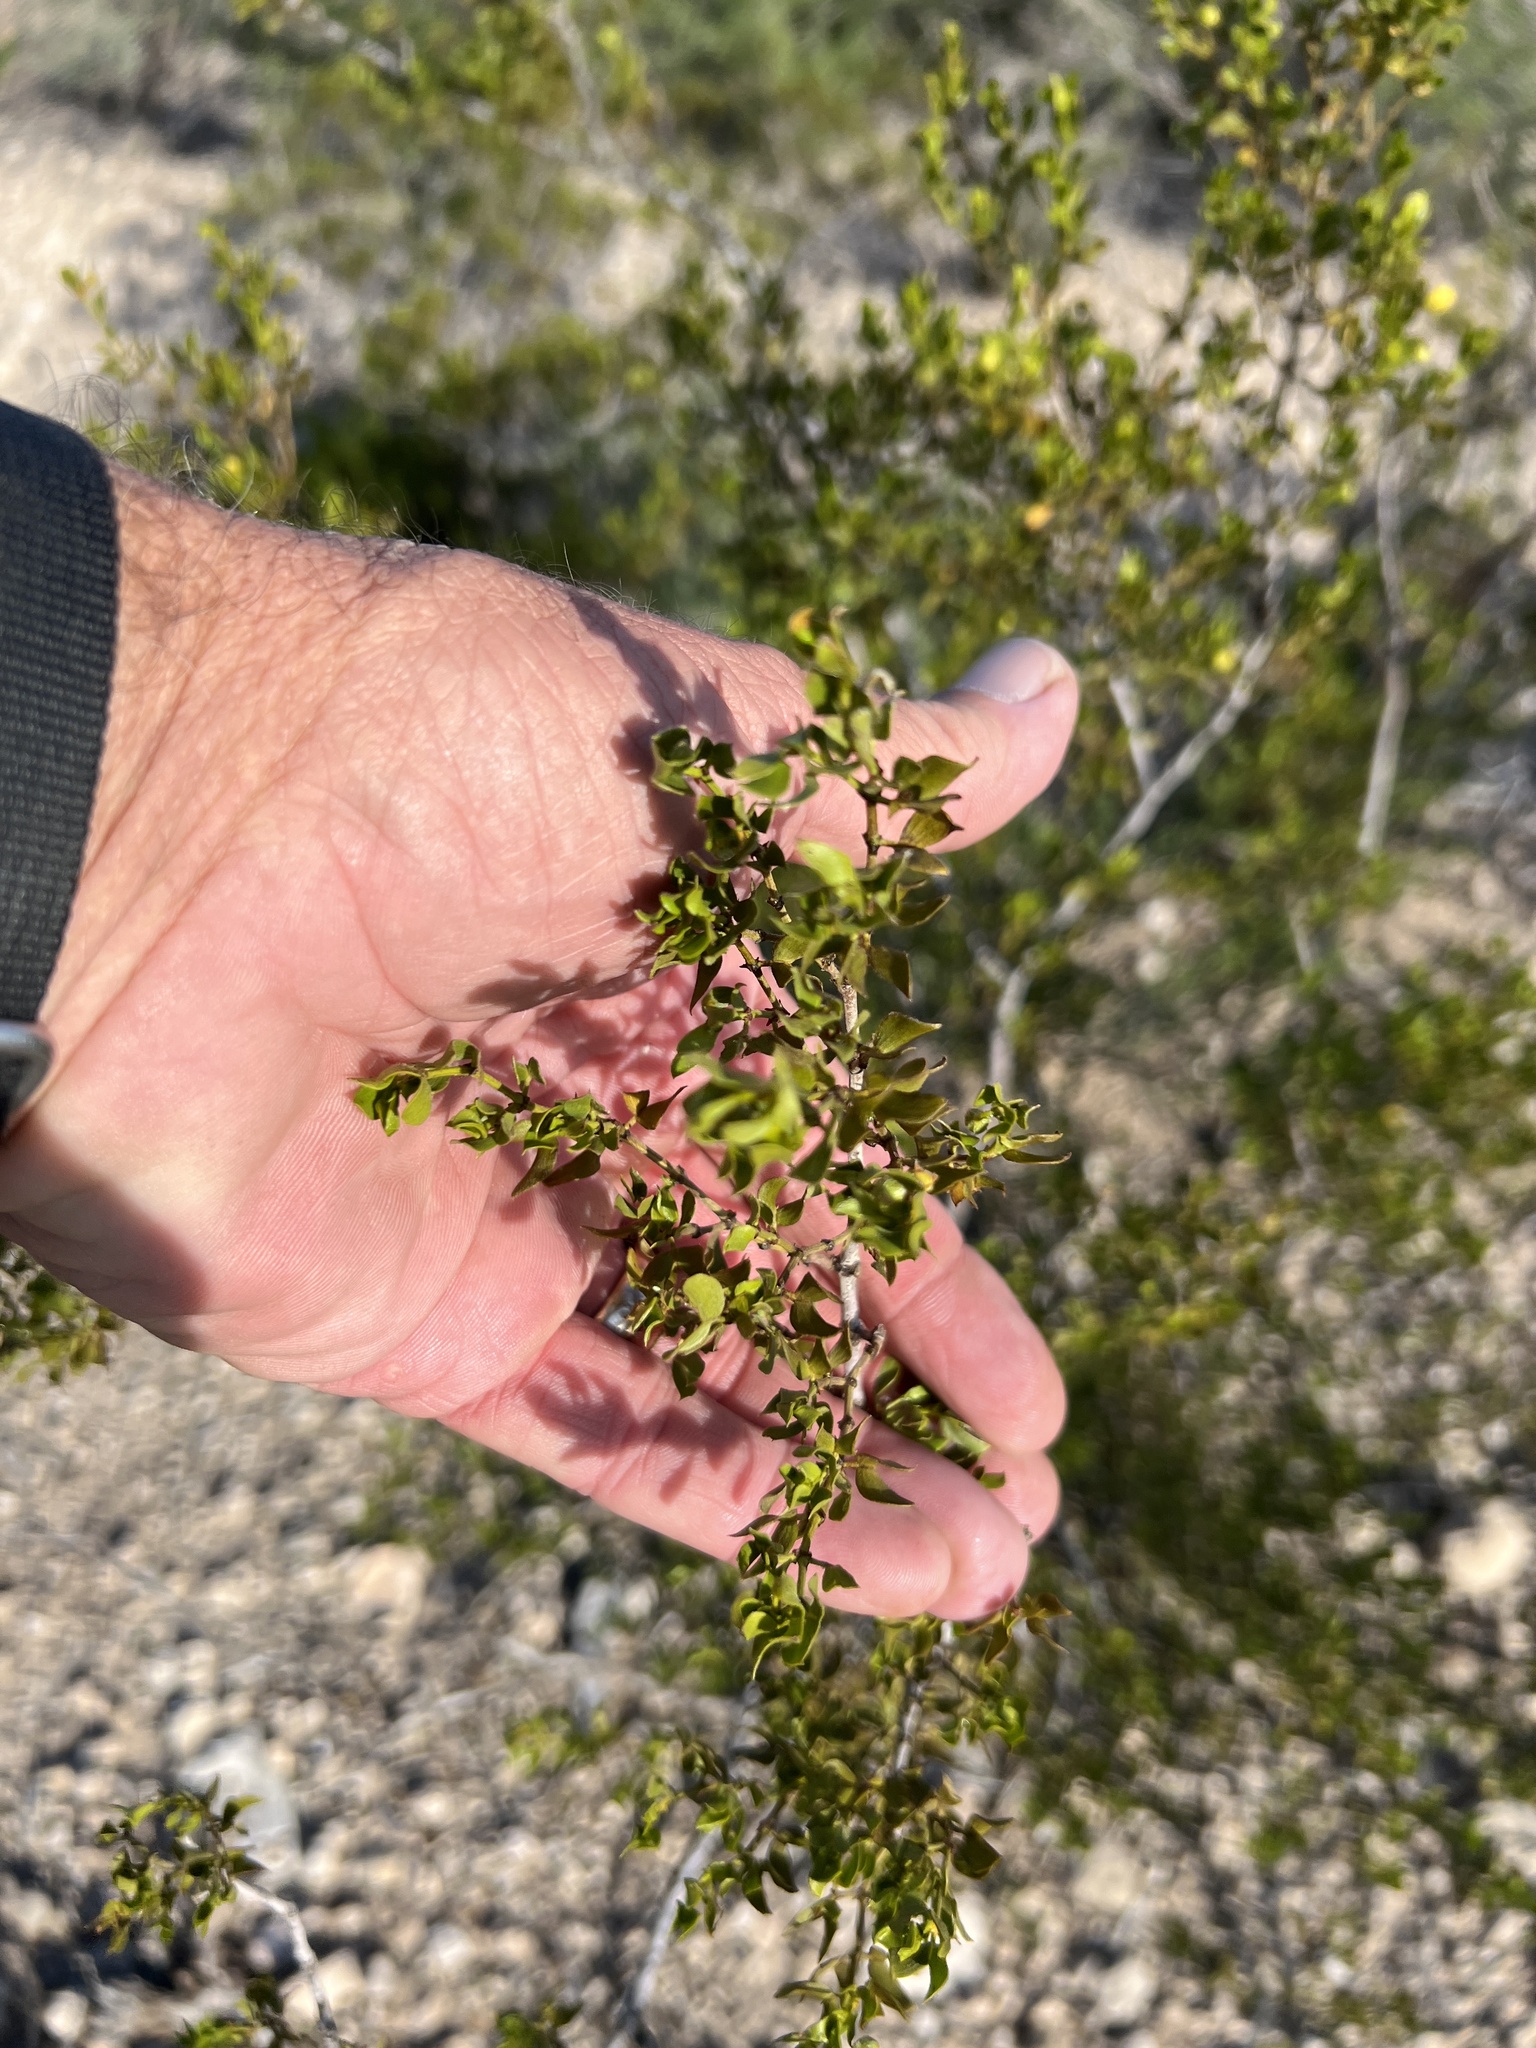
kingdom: Plantae
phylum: Tracheophyta
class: Magnoliopsida
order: Zygophyllales
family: Zygophyllaceae
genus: Larrea
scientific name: Larrea tridentata
